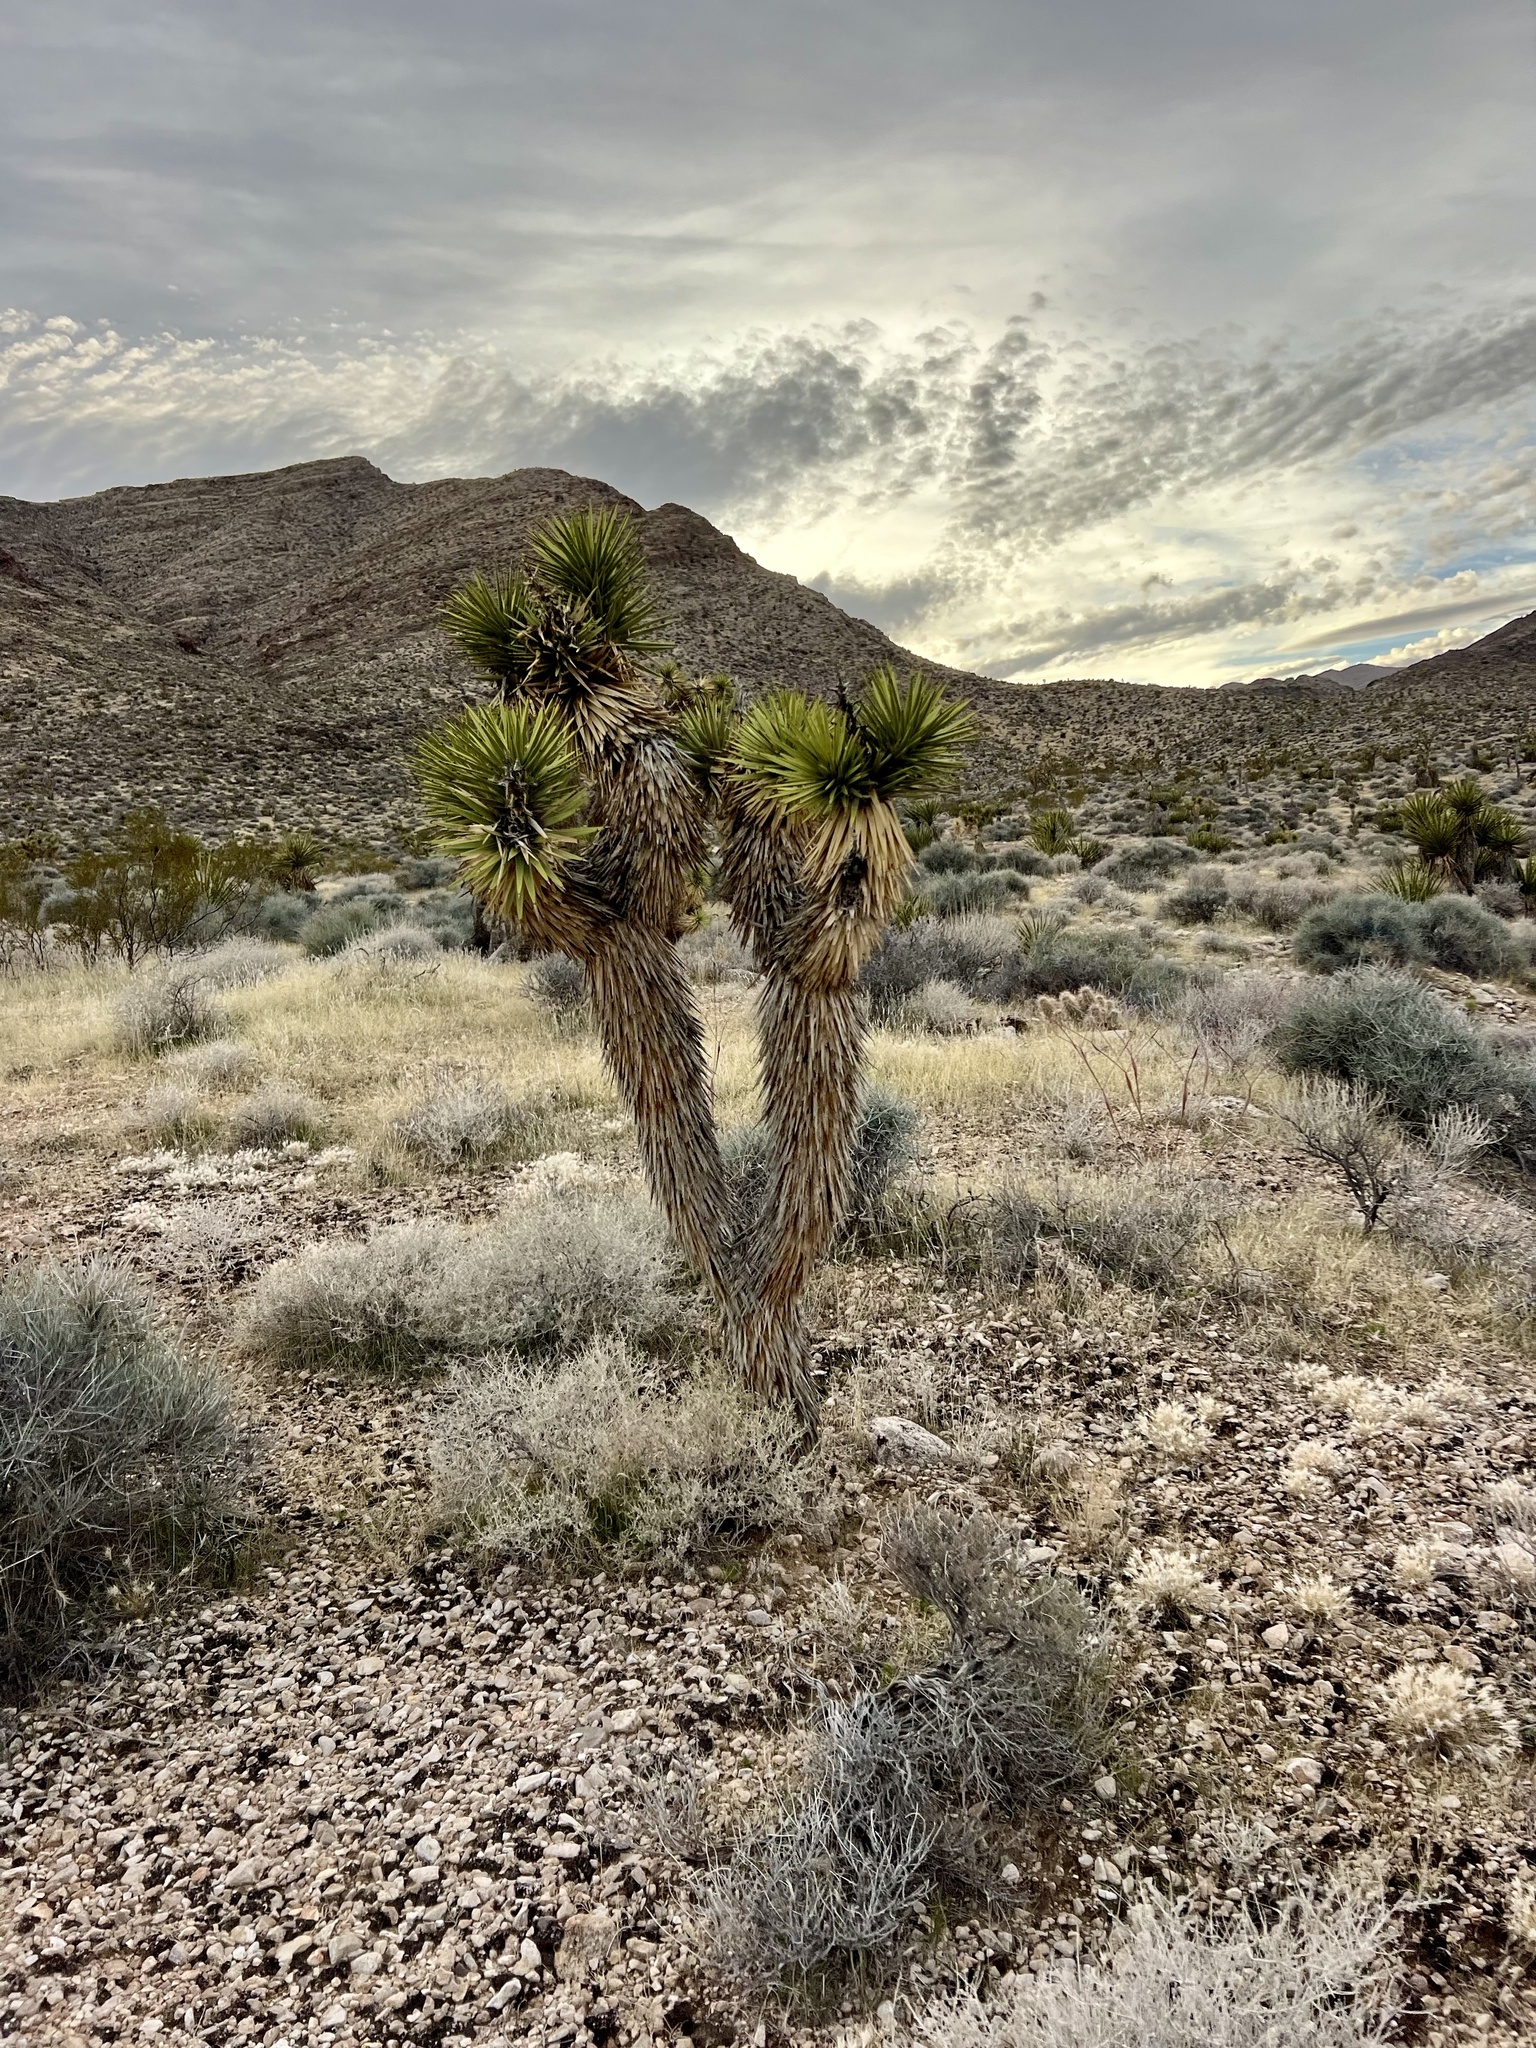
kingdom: Plantae
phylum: Tracheophyta
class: Liliopsida
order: Asparagales
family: Asparagaceae
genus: Yucca
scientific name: Yucca brevifolia
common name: Joshua tree
